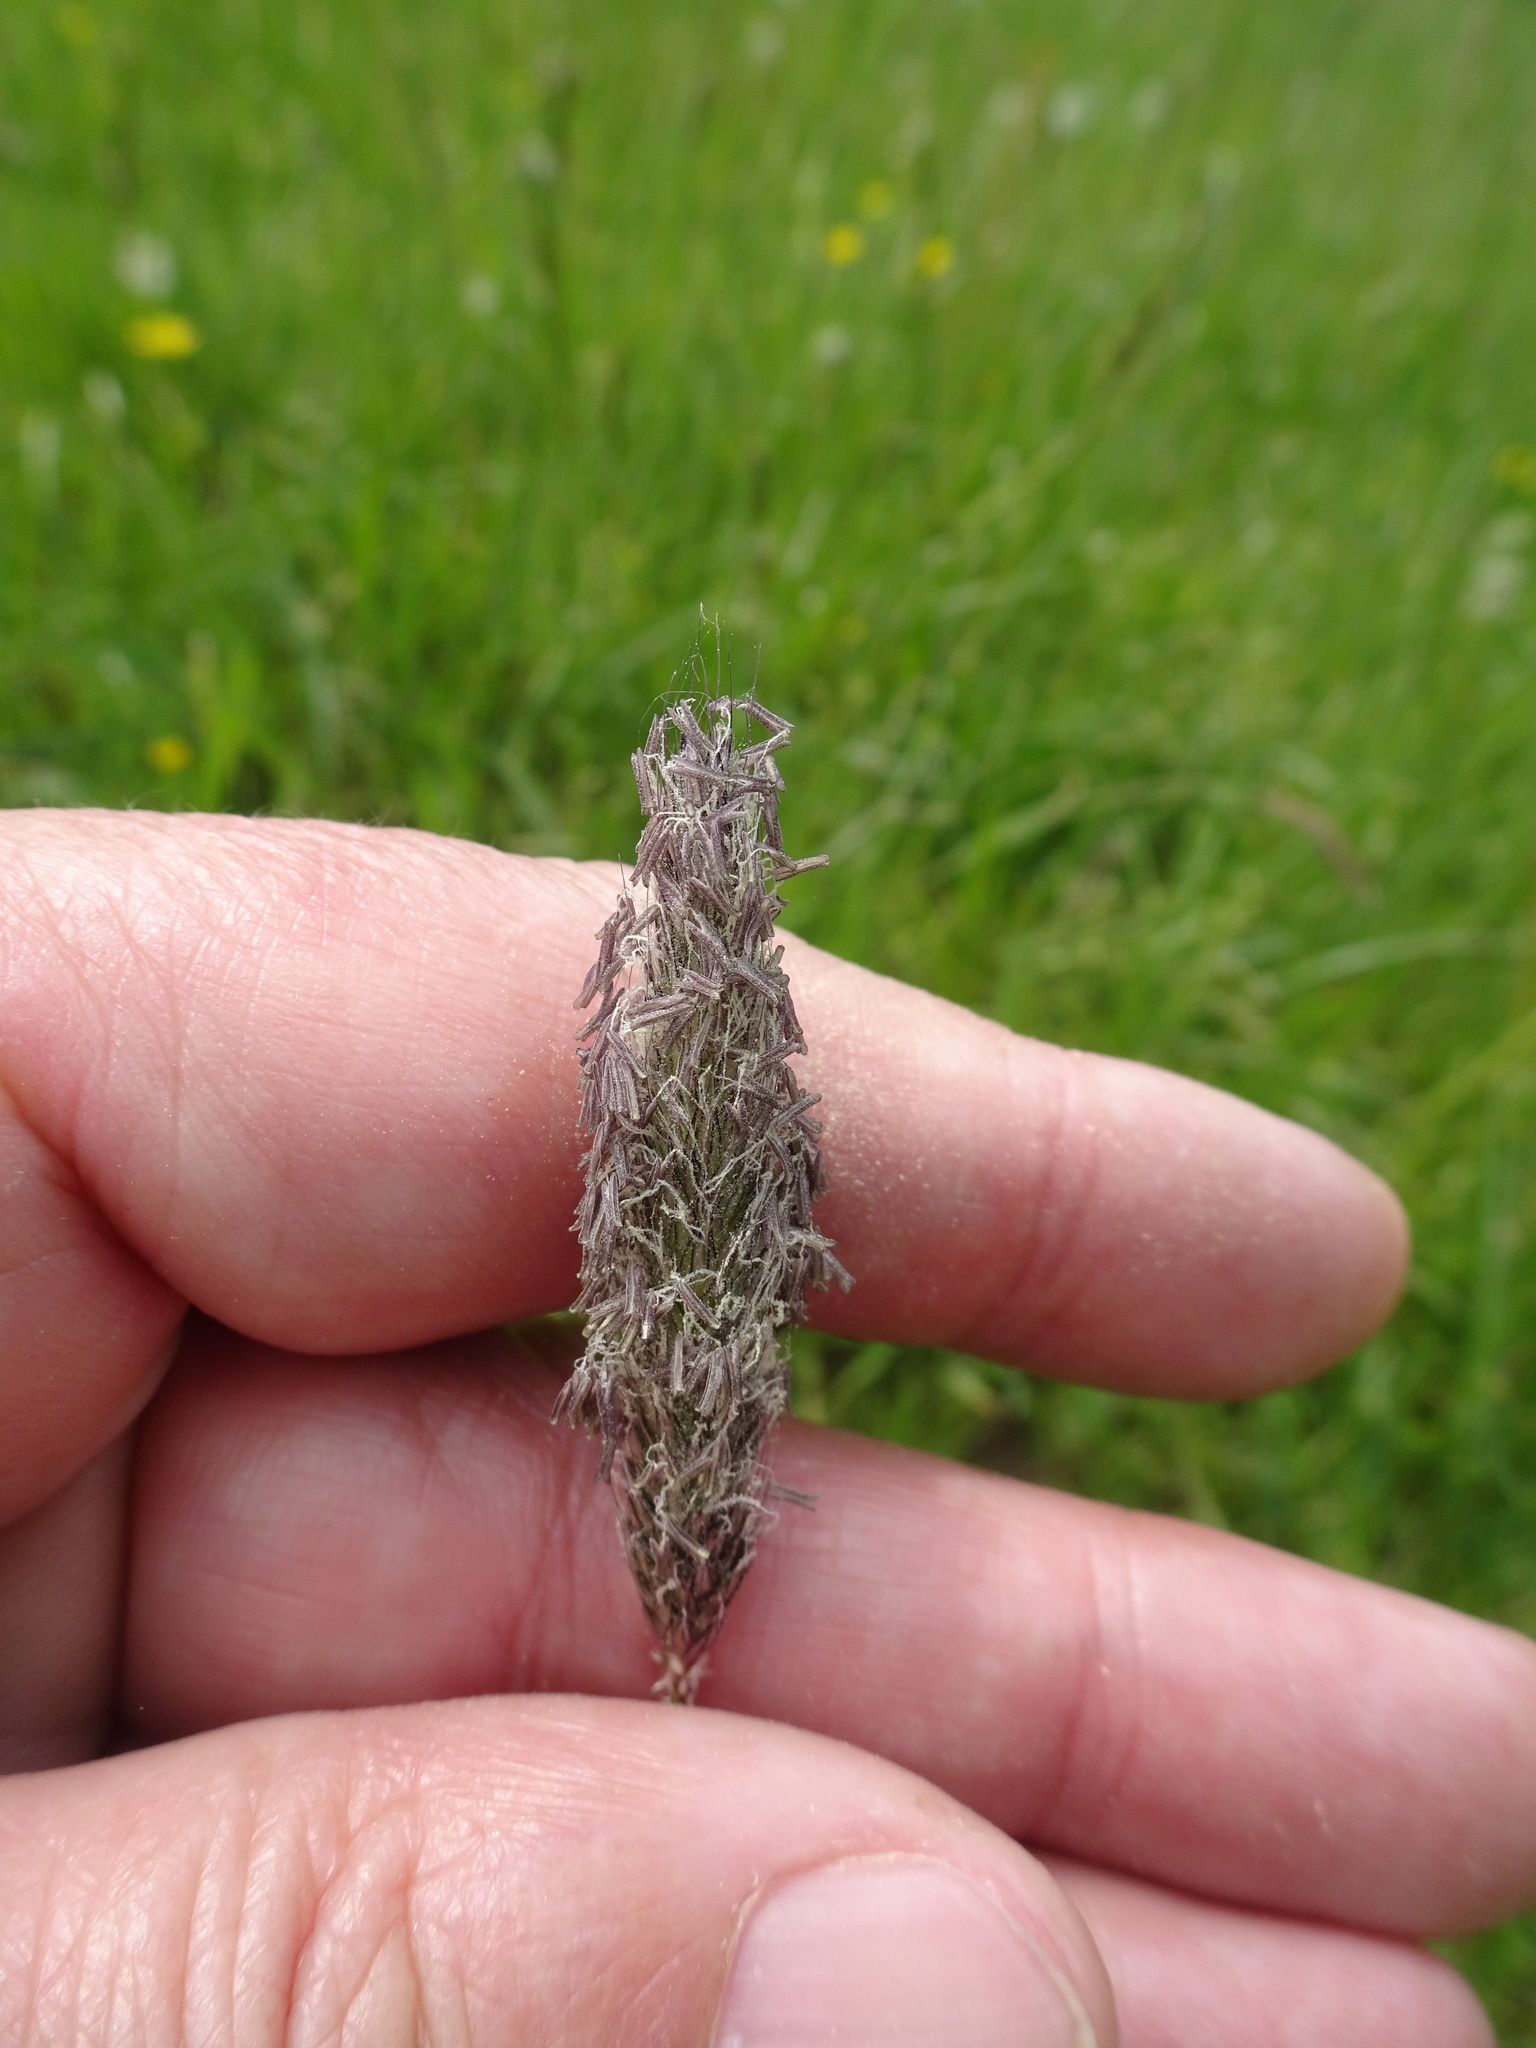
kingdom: Plantae
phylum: Tracheophyta
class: Liliopsida
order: Poales
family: Poaceae
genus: Alopecurus
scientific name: Alopecurus pratensis
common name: Meadow foxtail
